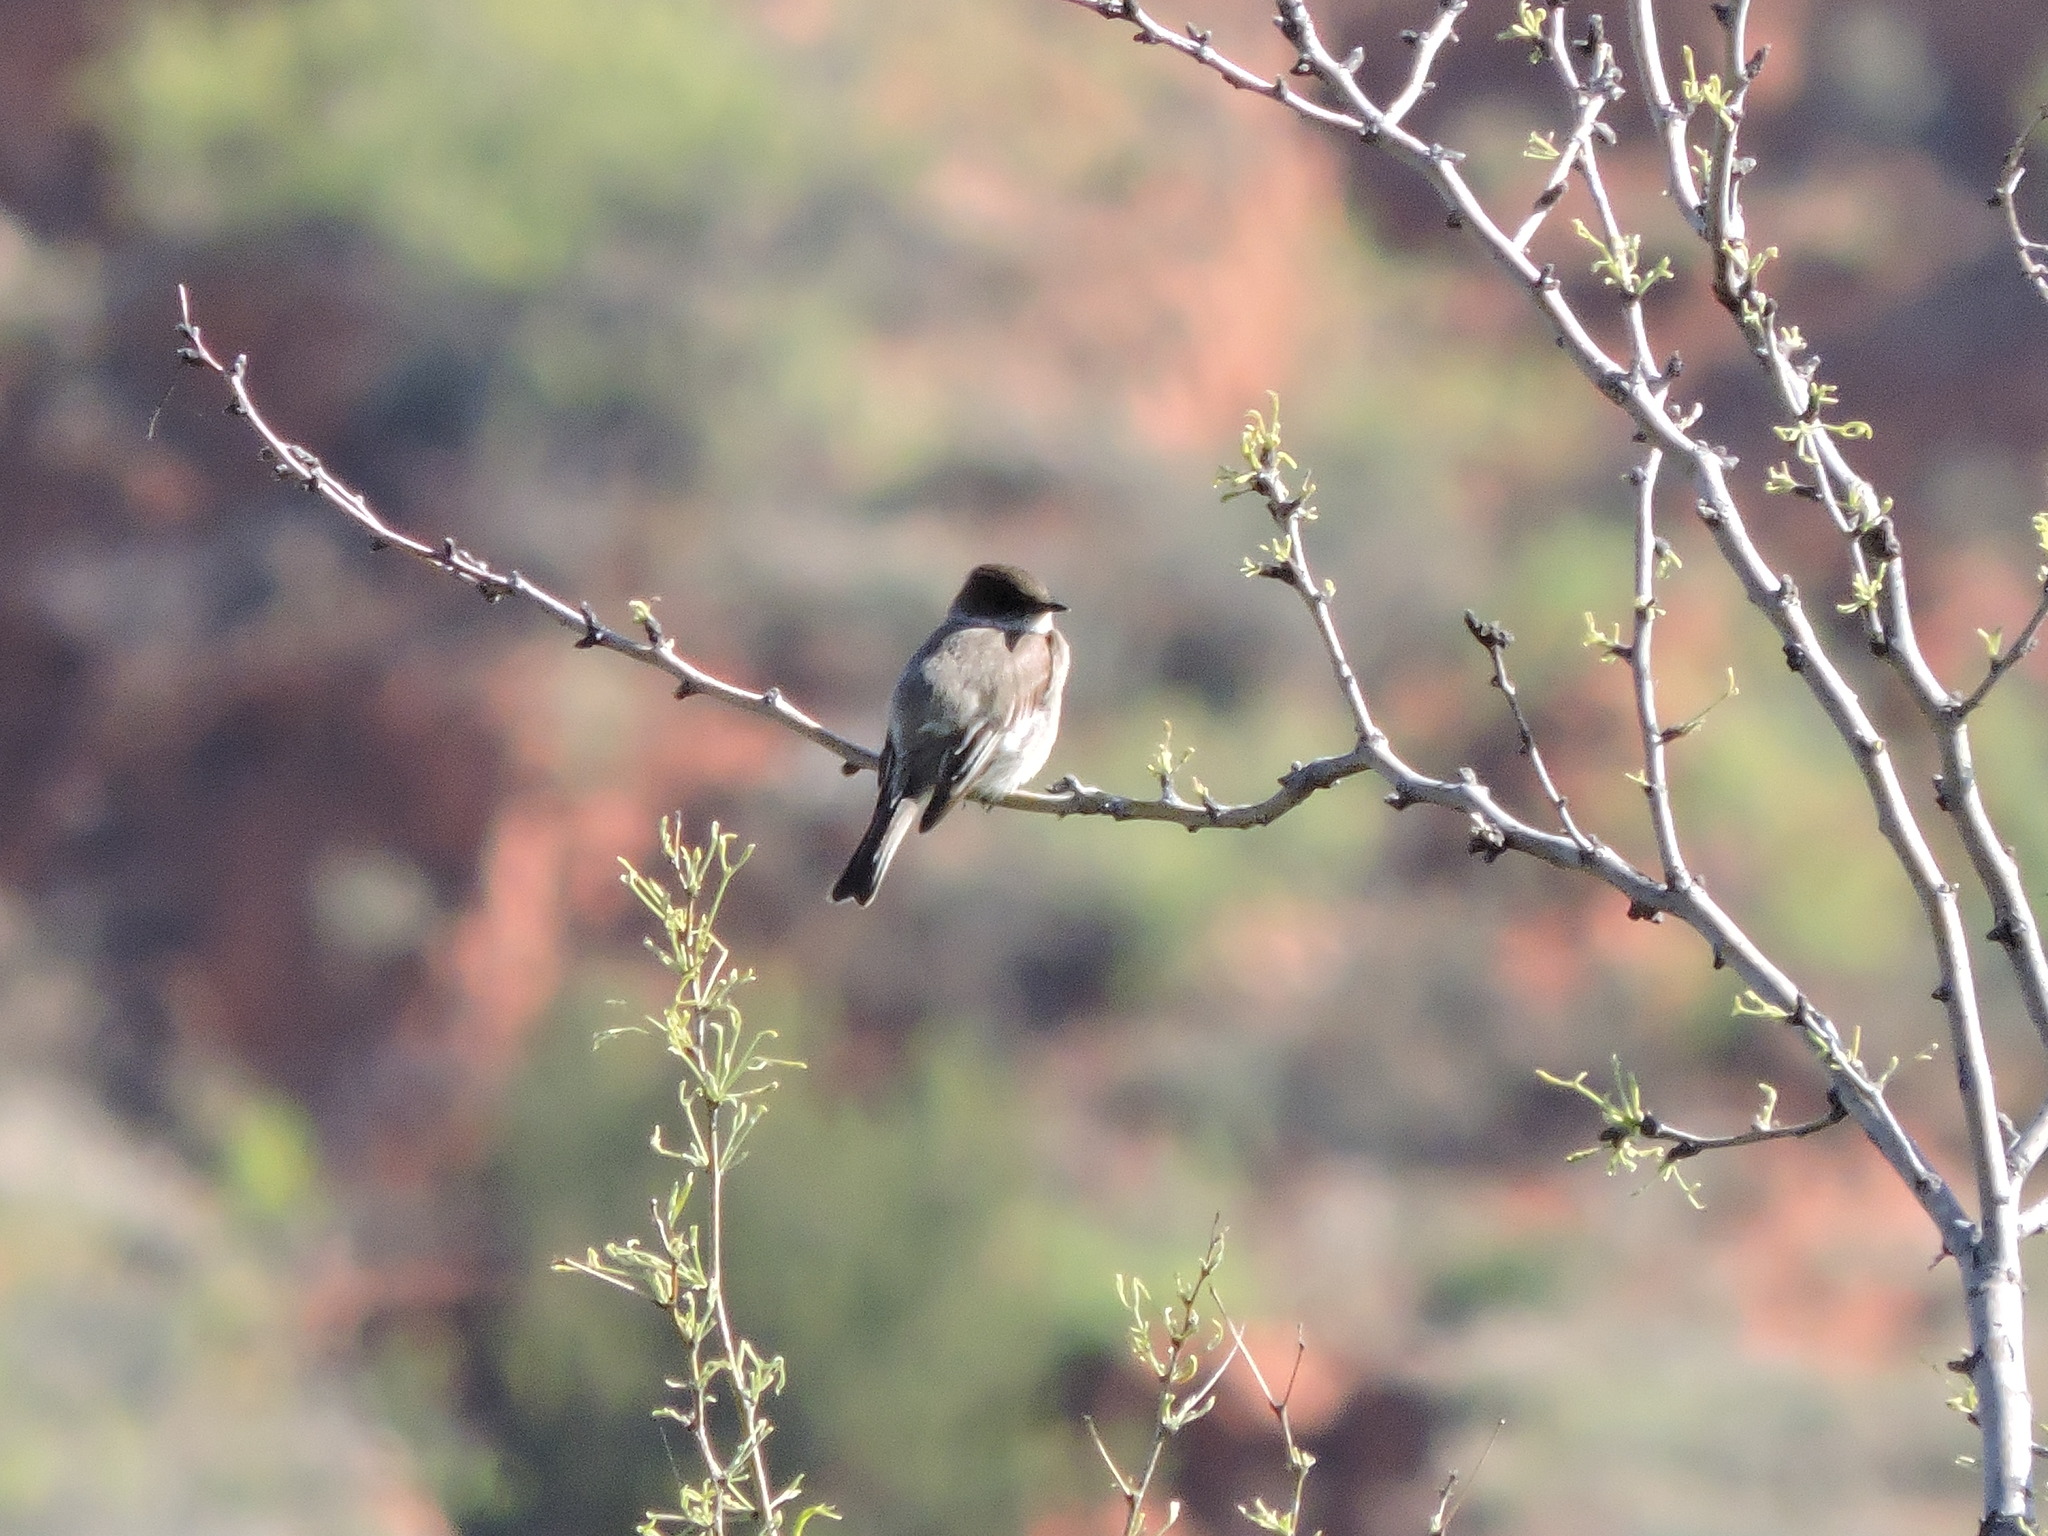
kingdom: Animalia
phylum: Chordata
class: Aves
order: Passeriformes
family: Tyrannidae
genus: Sayornis
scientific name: Sayornis phoebe
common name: Eastern phoebe
